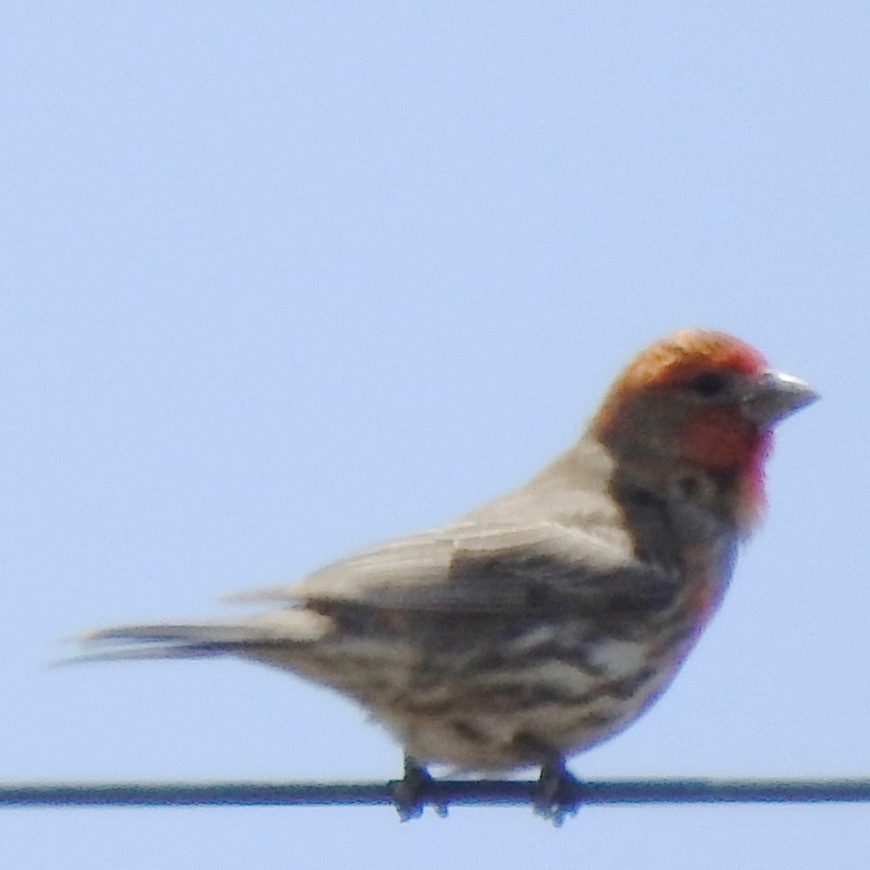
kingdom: Animalia
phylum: Chordata
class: Aves
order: Passeriformes
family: Fringillidae
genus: Haemorhous
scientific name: Haemorhous mexicanus
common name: House finch
